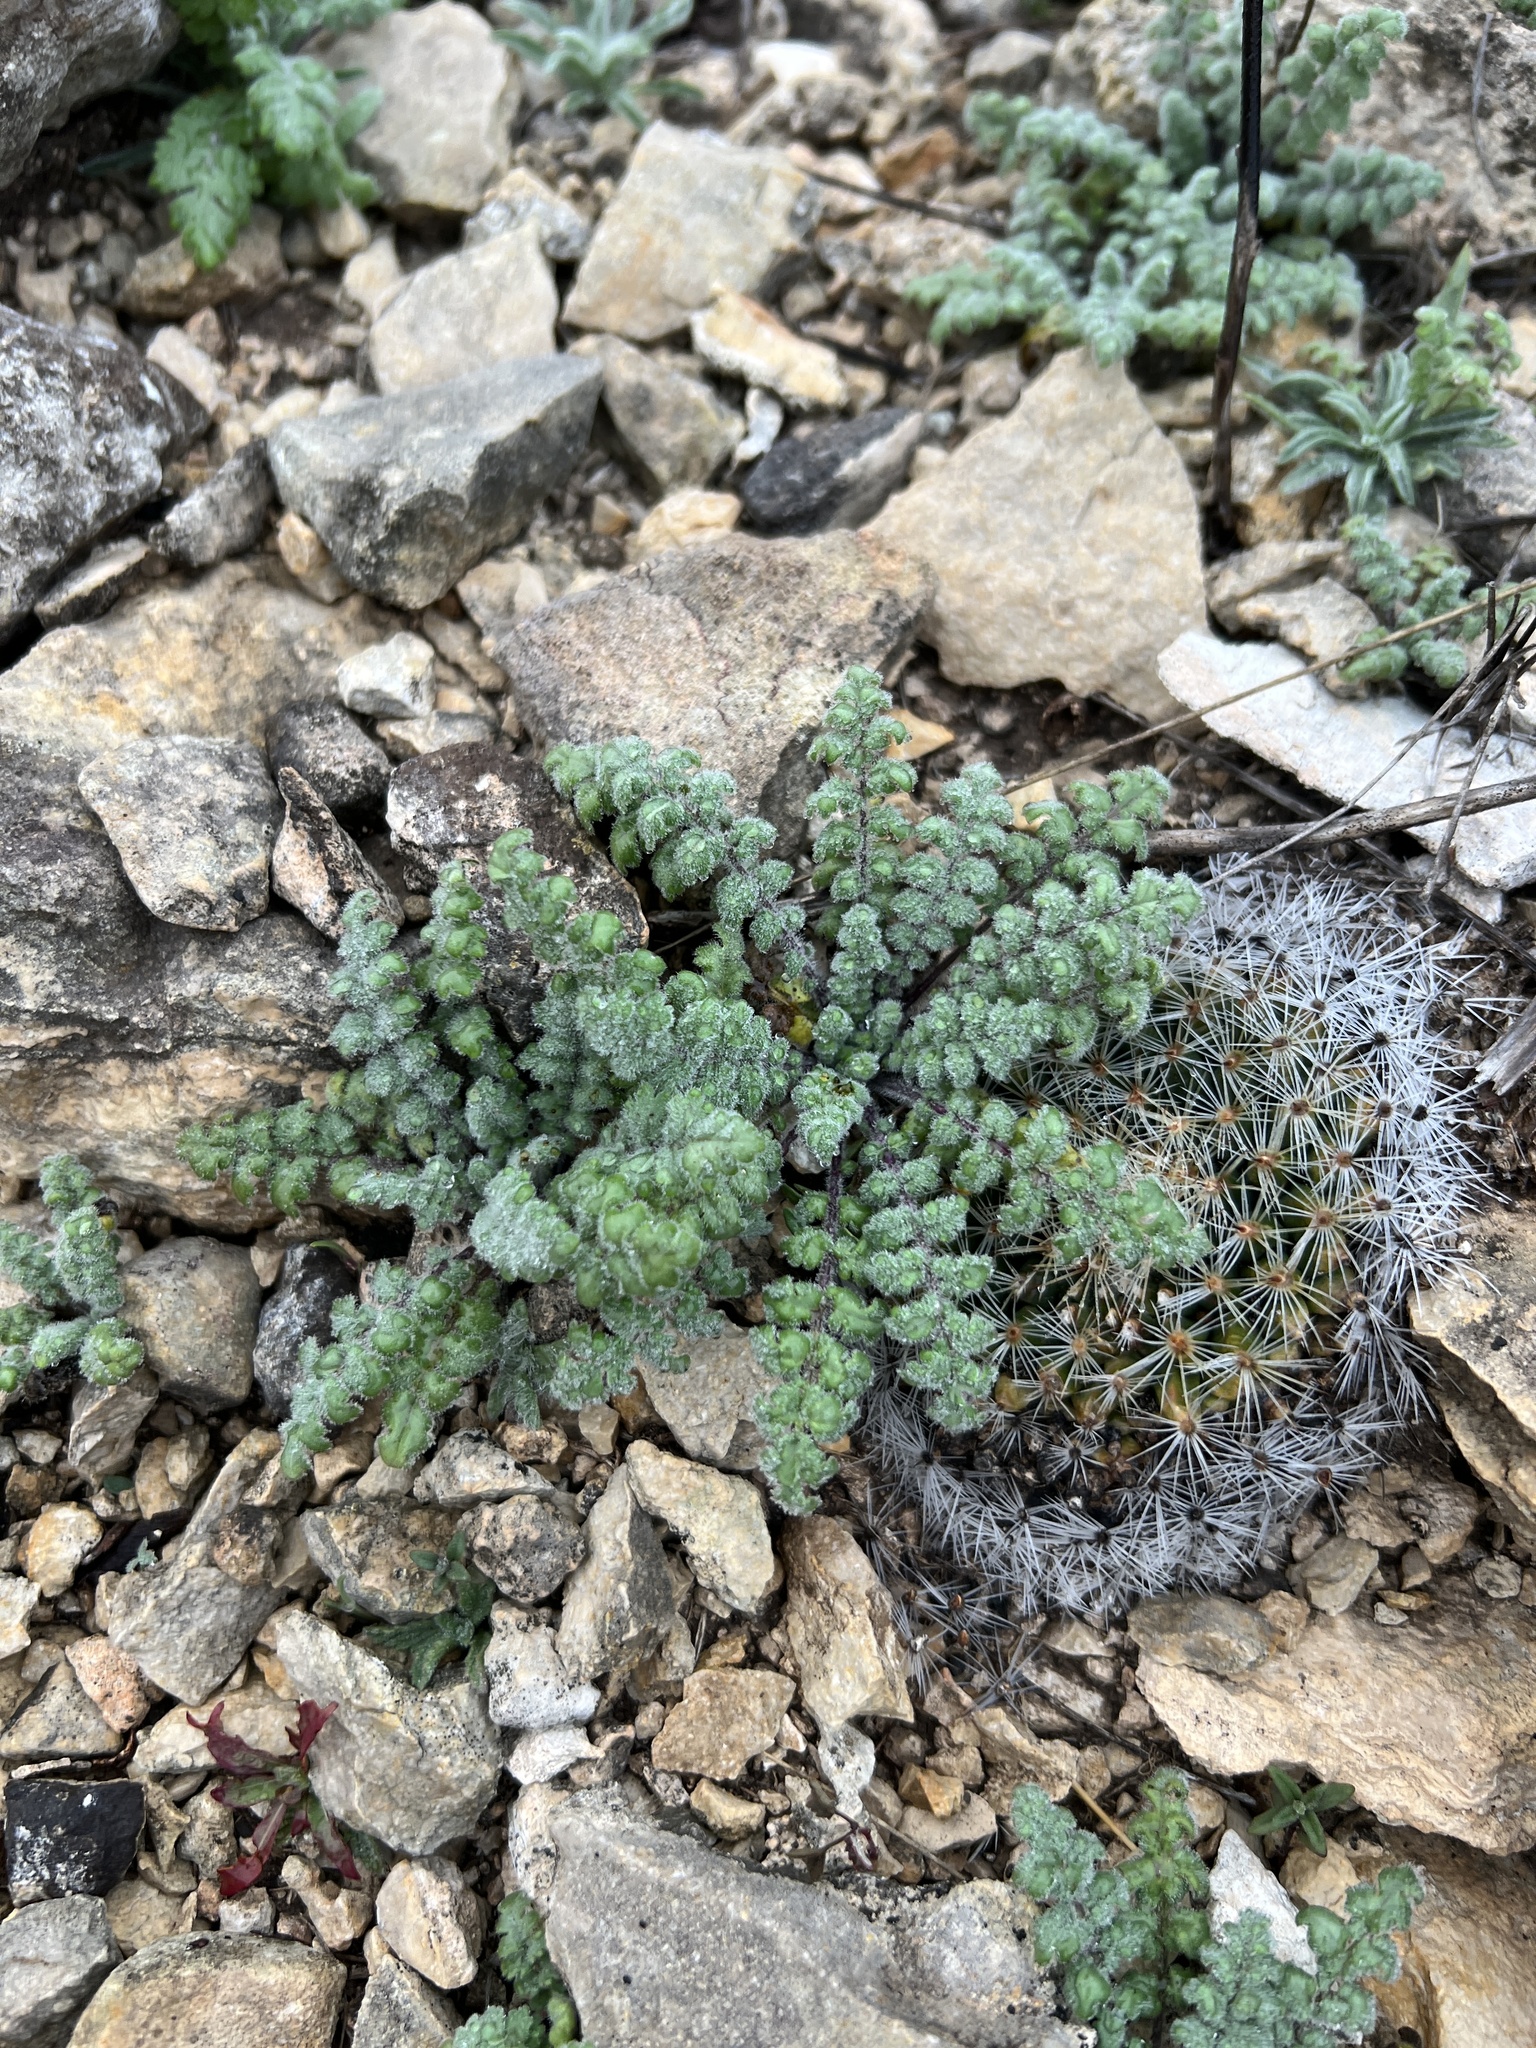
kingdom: Plantae
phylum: Tracheophyta
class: Magnoliopsida
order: Geraniales
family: Geraniaceae
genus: Erodium
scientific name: Erodium cicutarium
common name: Common stork's-bill
